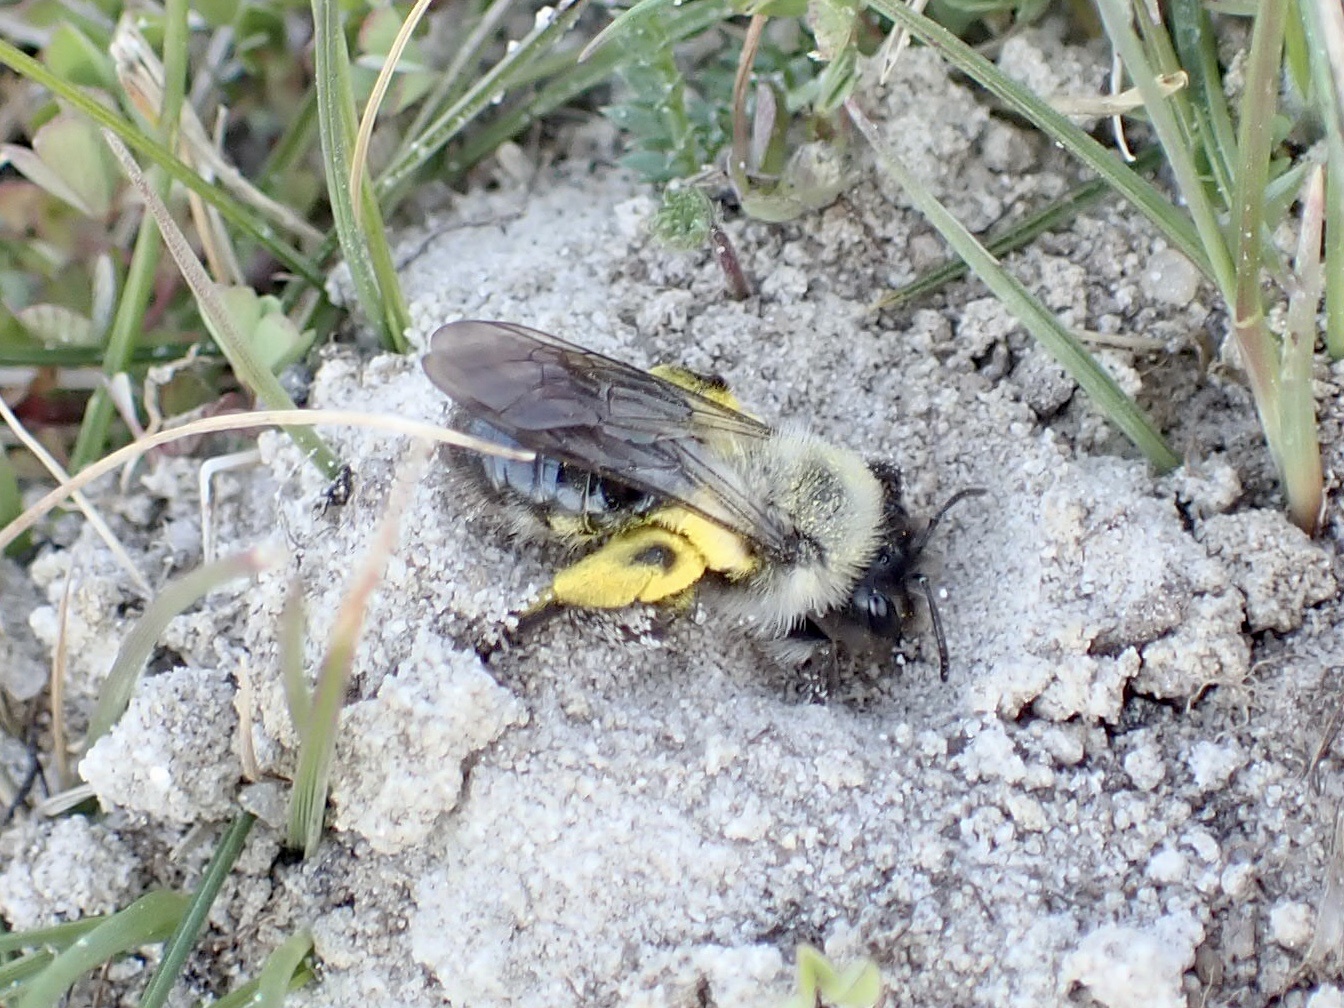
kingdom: Animalia
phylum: Arthropoda
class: Insecta
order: Hymenoptera
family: Andrenidae
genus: Andrena
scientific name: Andrena vaga
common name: Grey-backed mining bee
